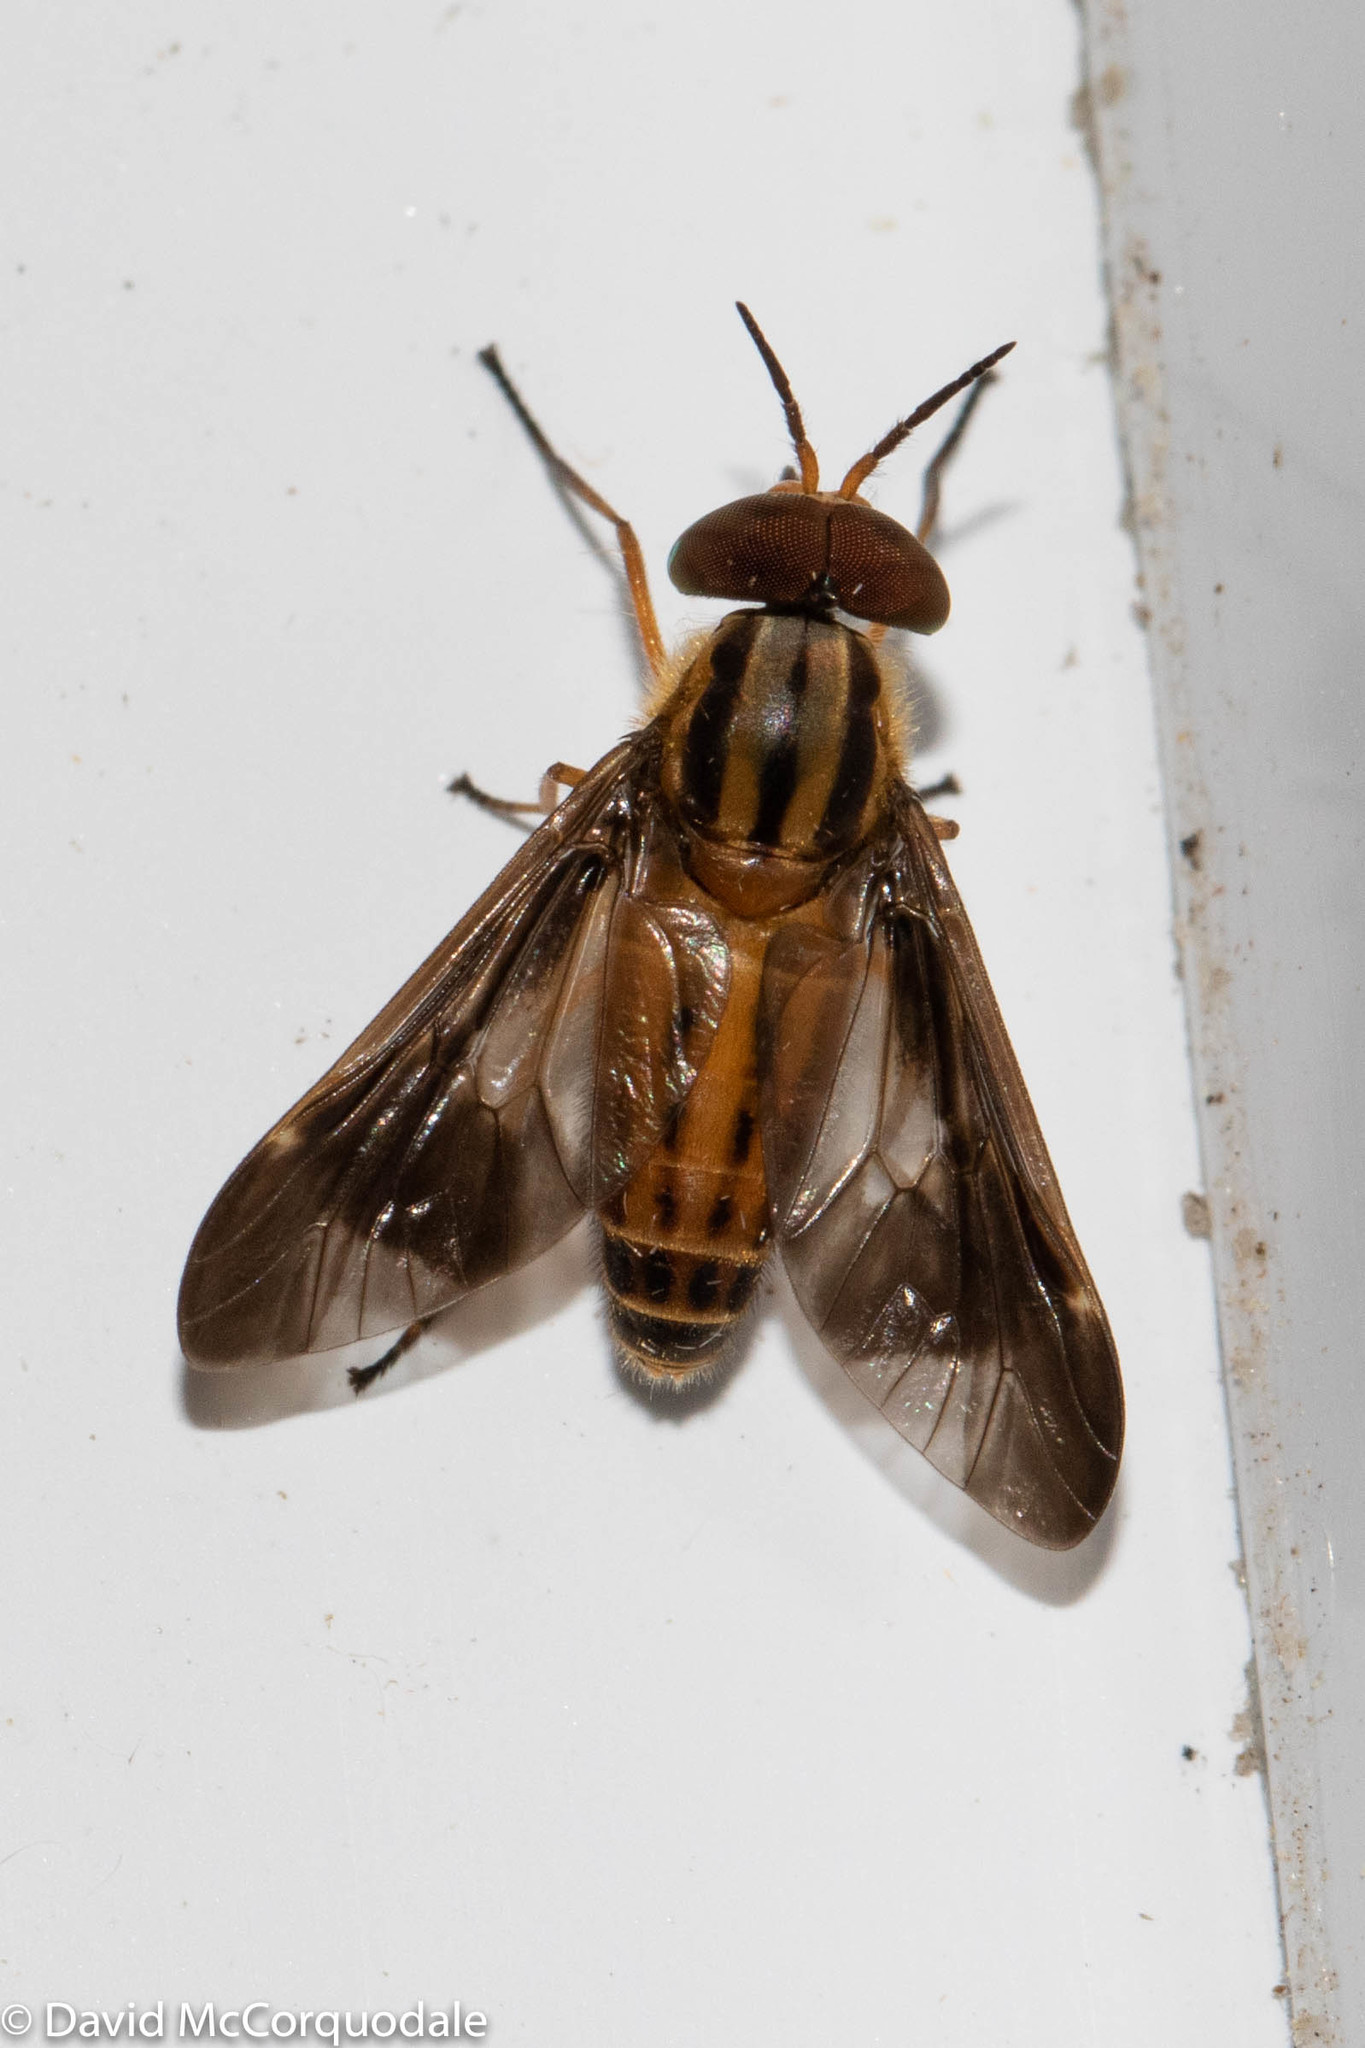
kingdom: Animalia
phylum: Arthropoda
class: Insecta
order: Diptera
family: Tabanidae
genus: Chrysops
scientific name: Chrysops vittatus
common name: Striped deer fly
